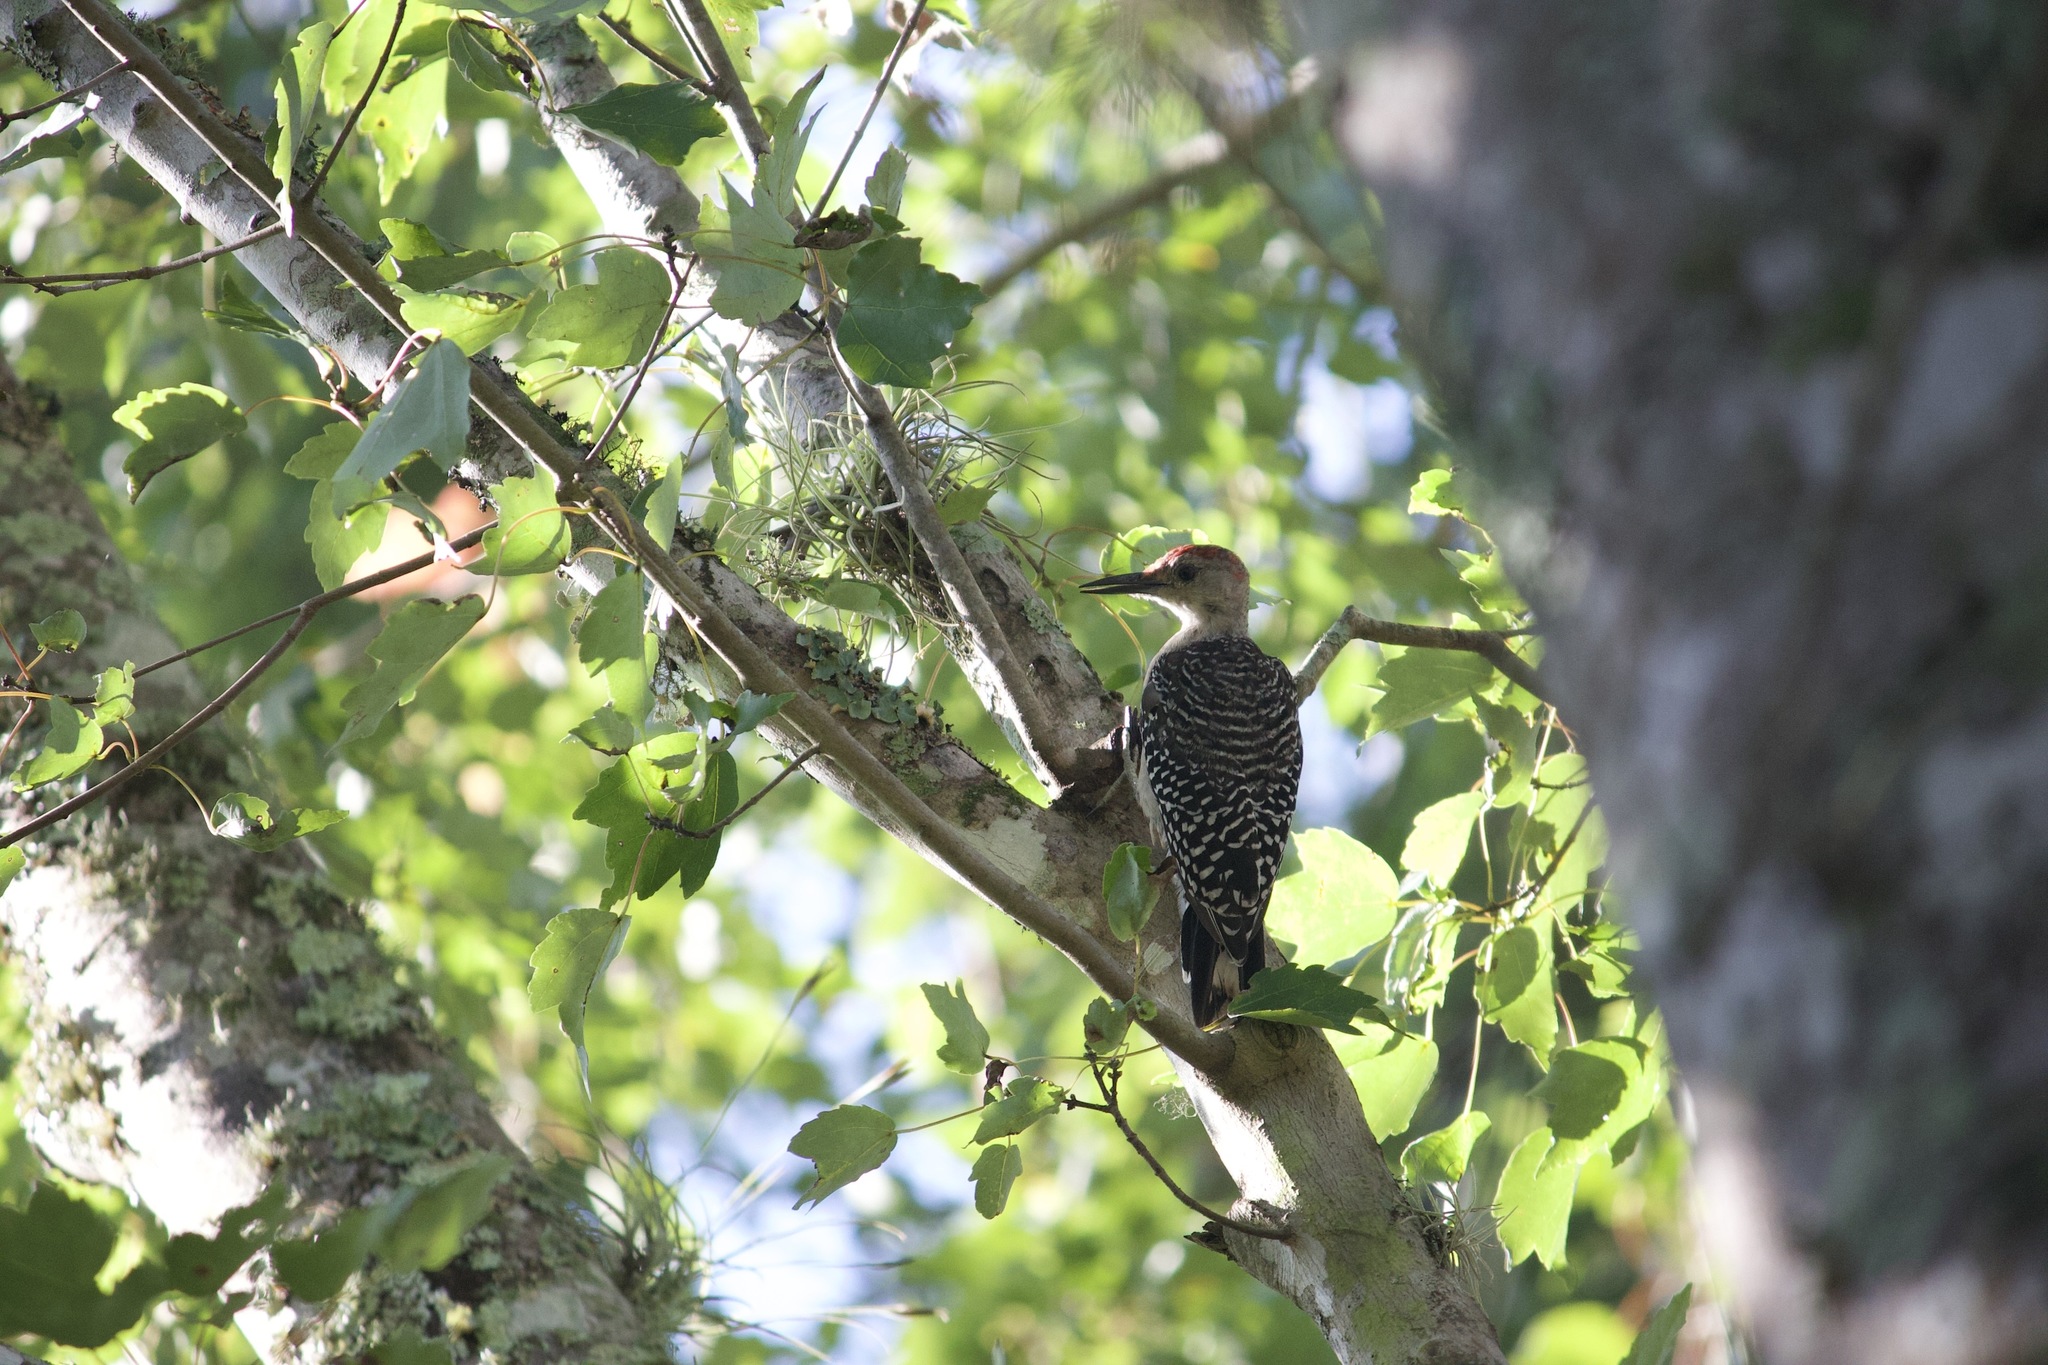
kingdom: Animalia
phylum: Chordata
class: Aves
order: Piciformes
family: Picidae
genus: Melanerpes
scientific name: Melanerpes carolinus
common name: Red-bellied woodpecker
